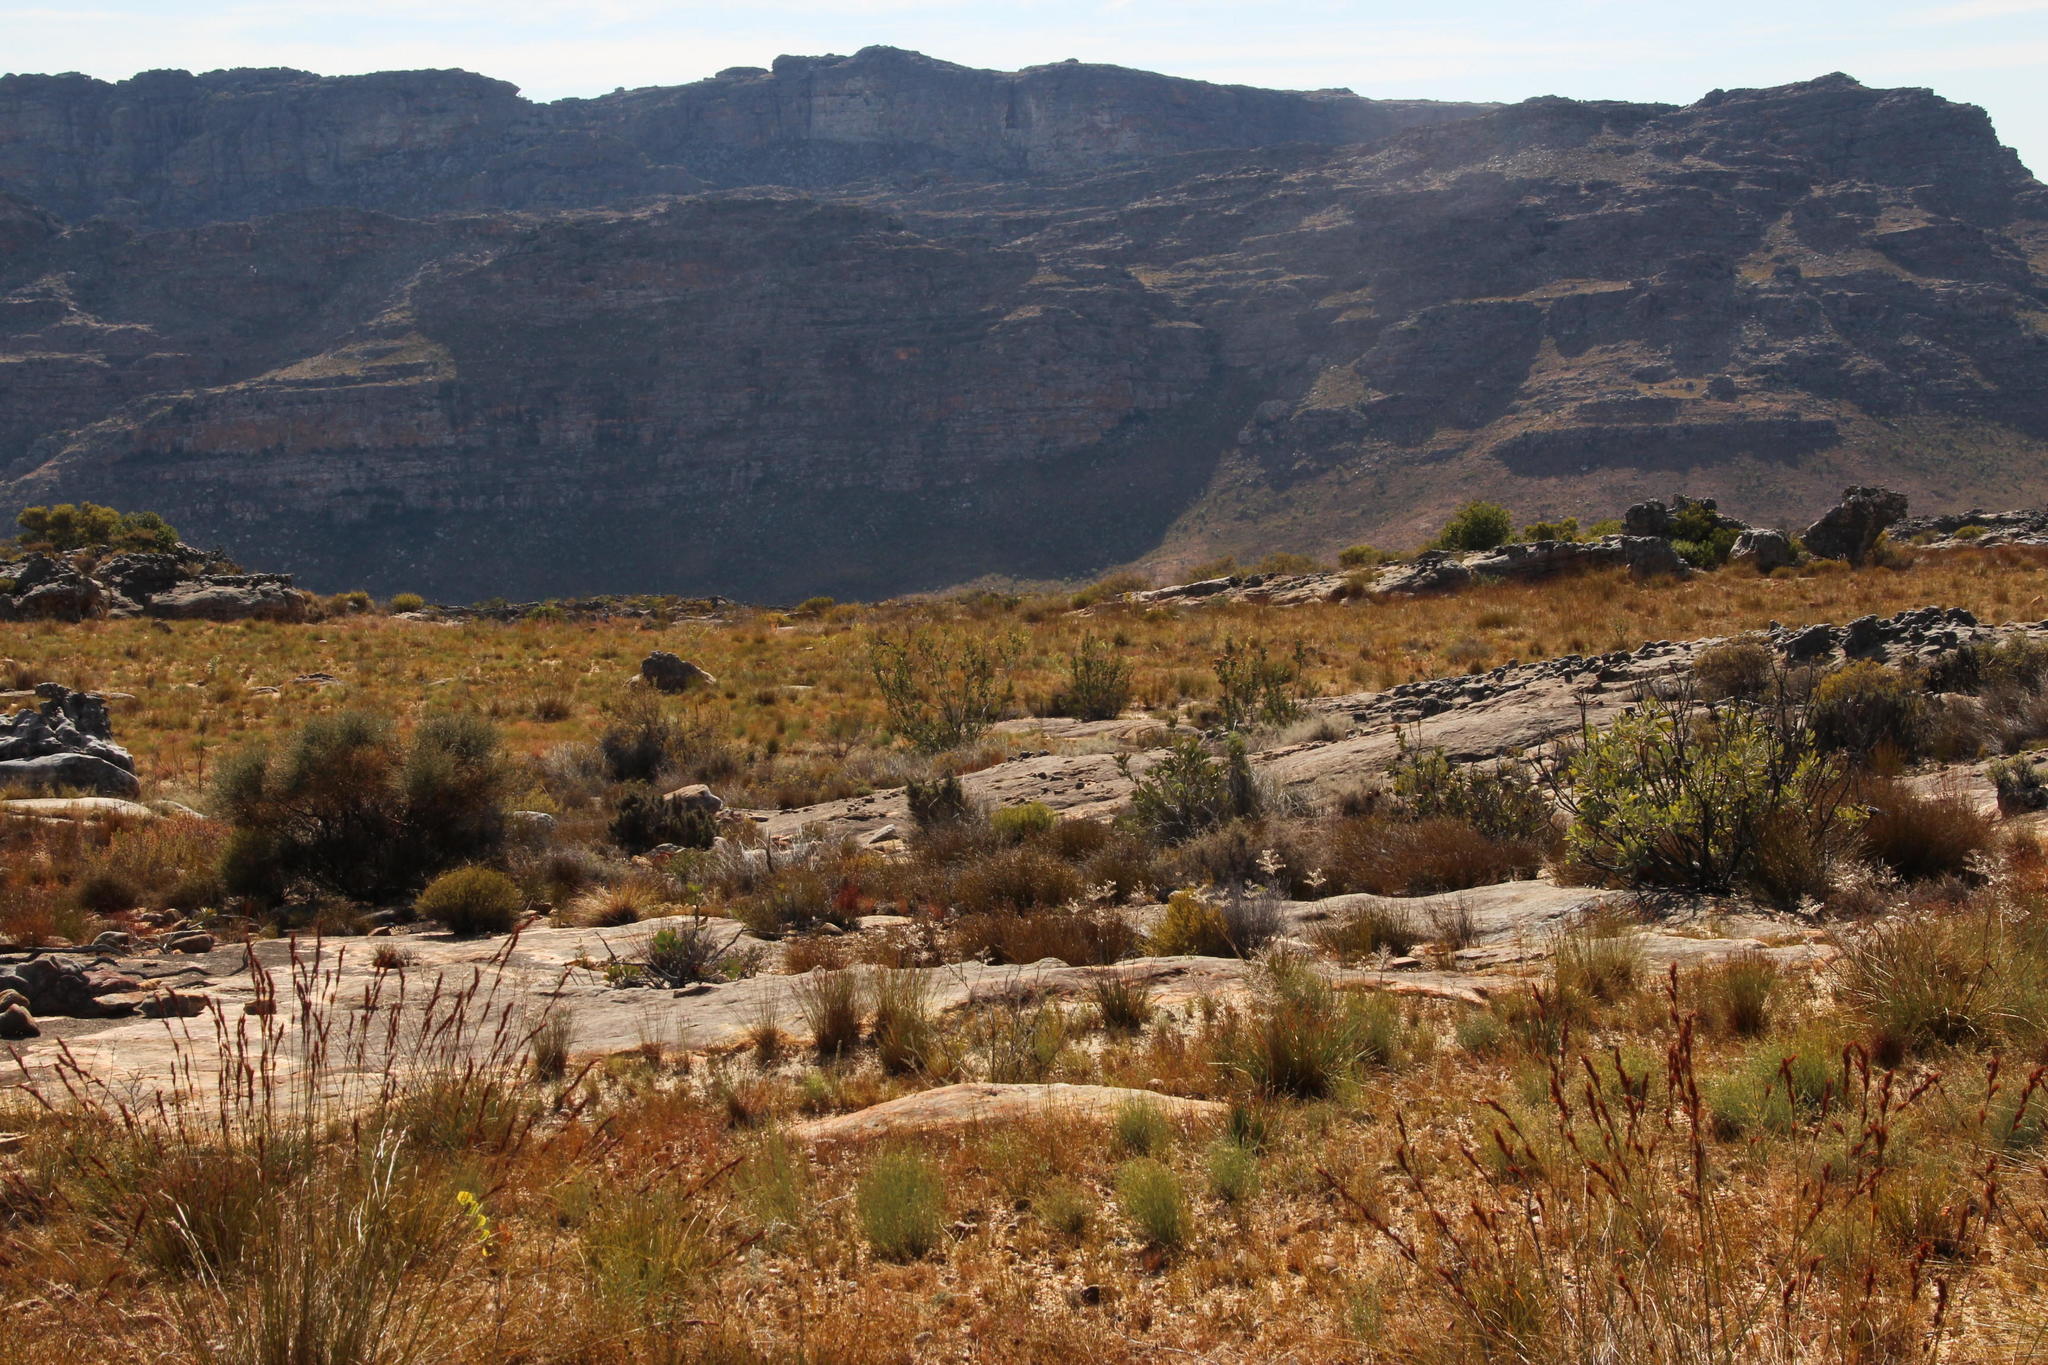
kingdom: Plantae
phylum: Tracheophyta
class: Magnoliopsida
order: Proteales
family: Proteaceae
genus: Protea
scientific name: Protea glabra
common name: Chestnut sugarbush
